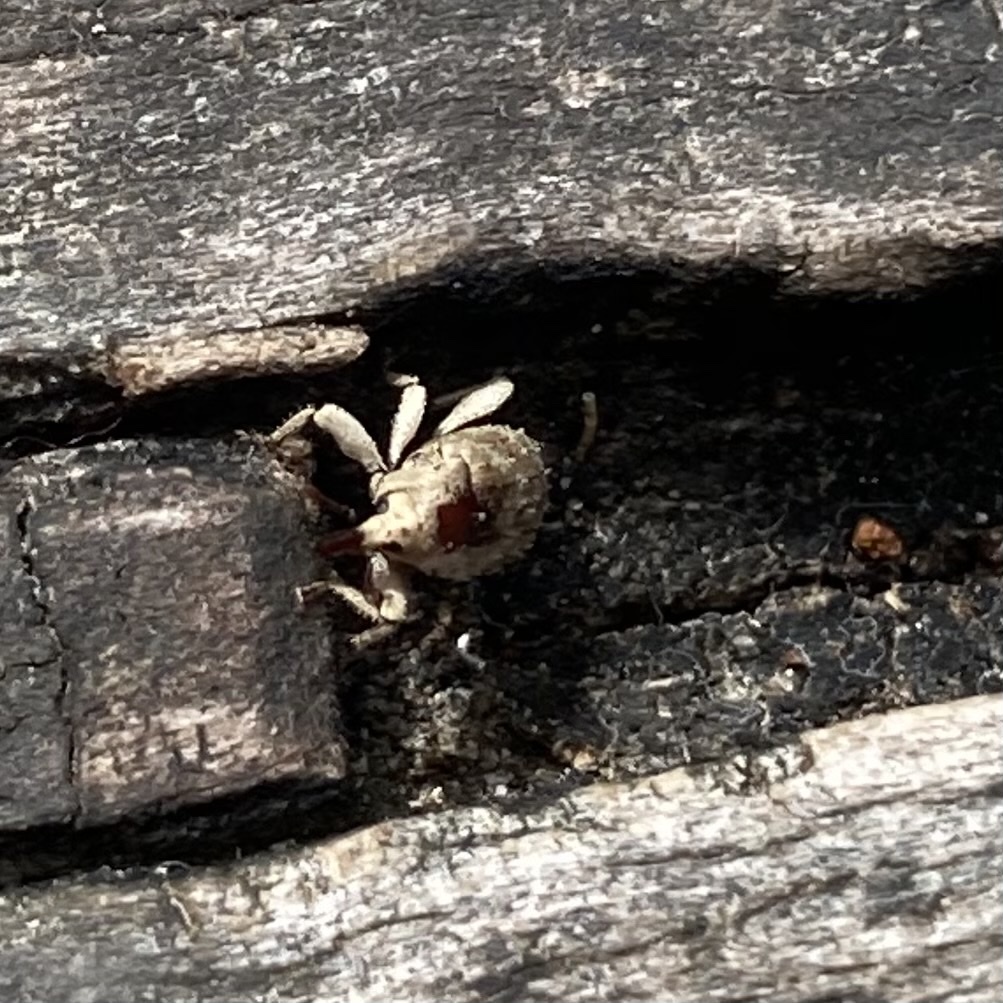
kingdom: Animalia
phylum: Arthropoda
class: Insecta
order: Coleoptera
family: Curculionidae
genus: Mitrastethus
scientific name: Mitrastethus baridioides
